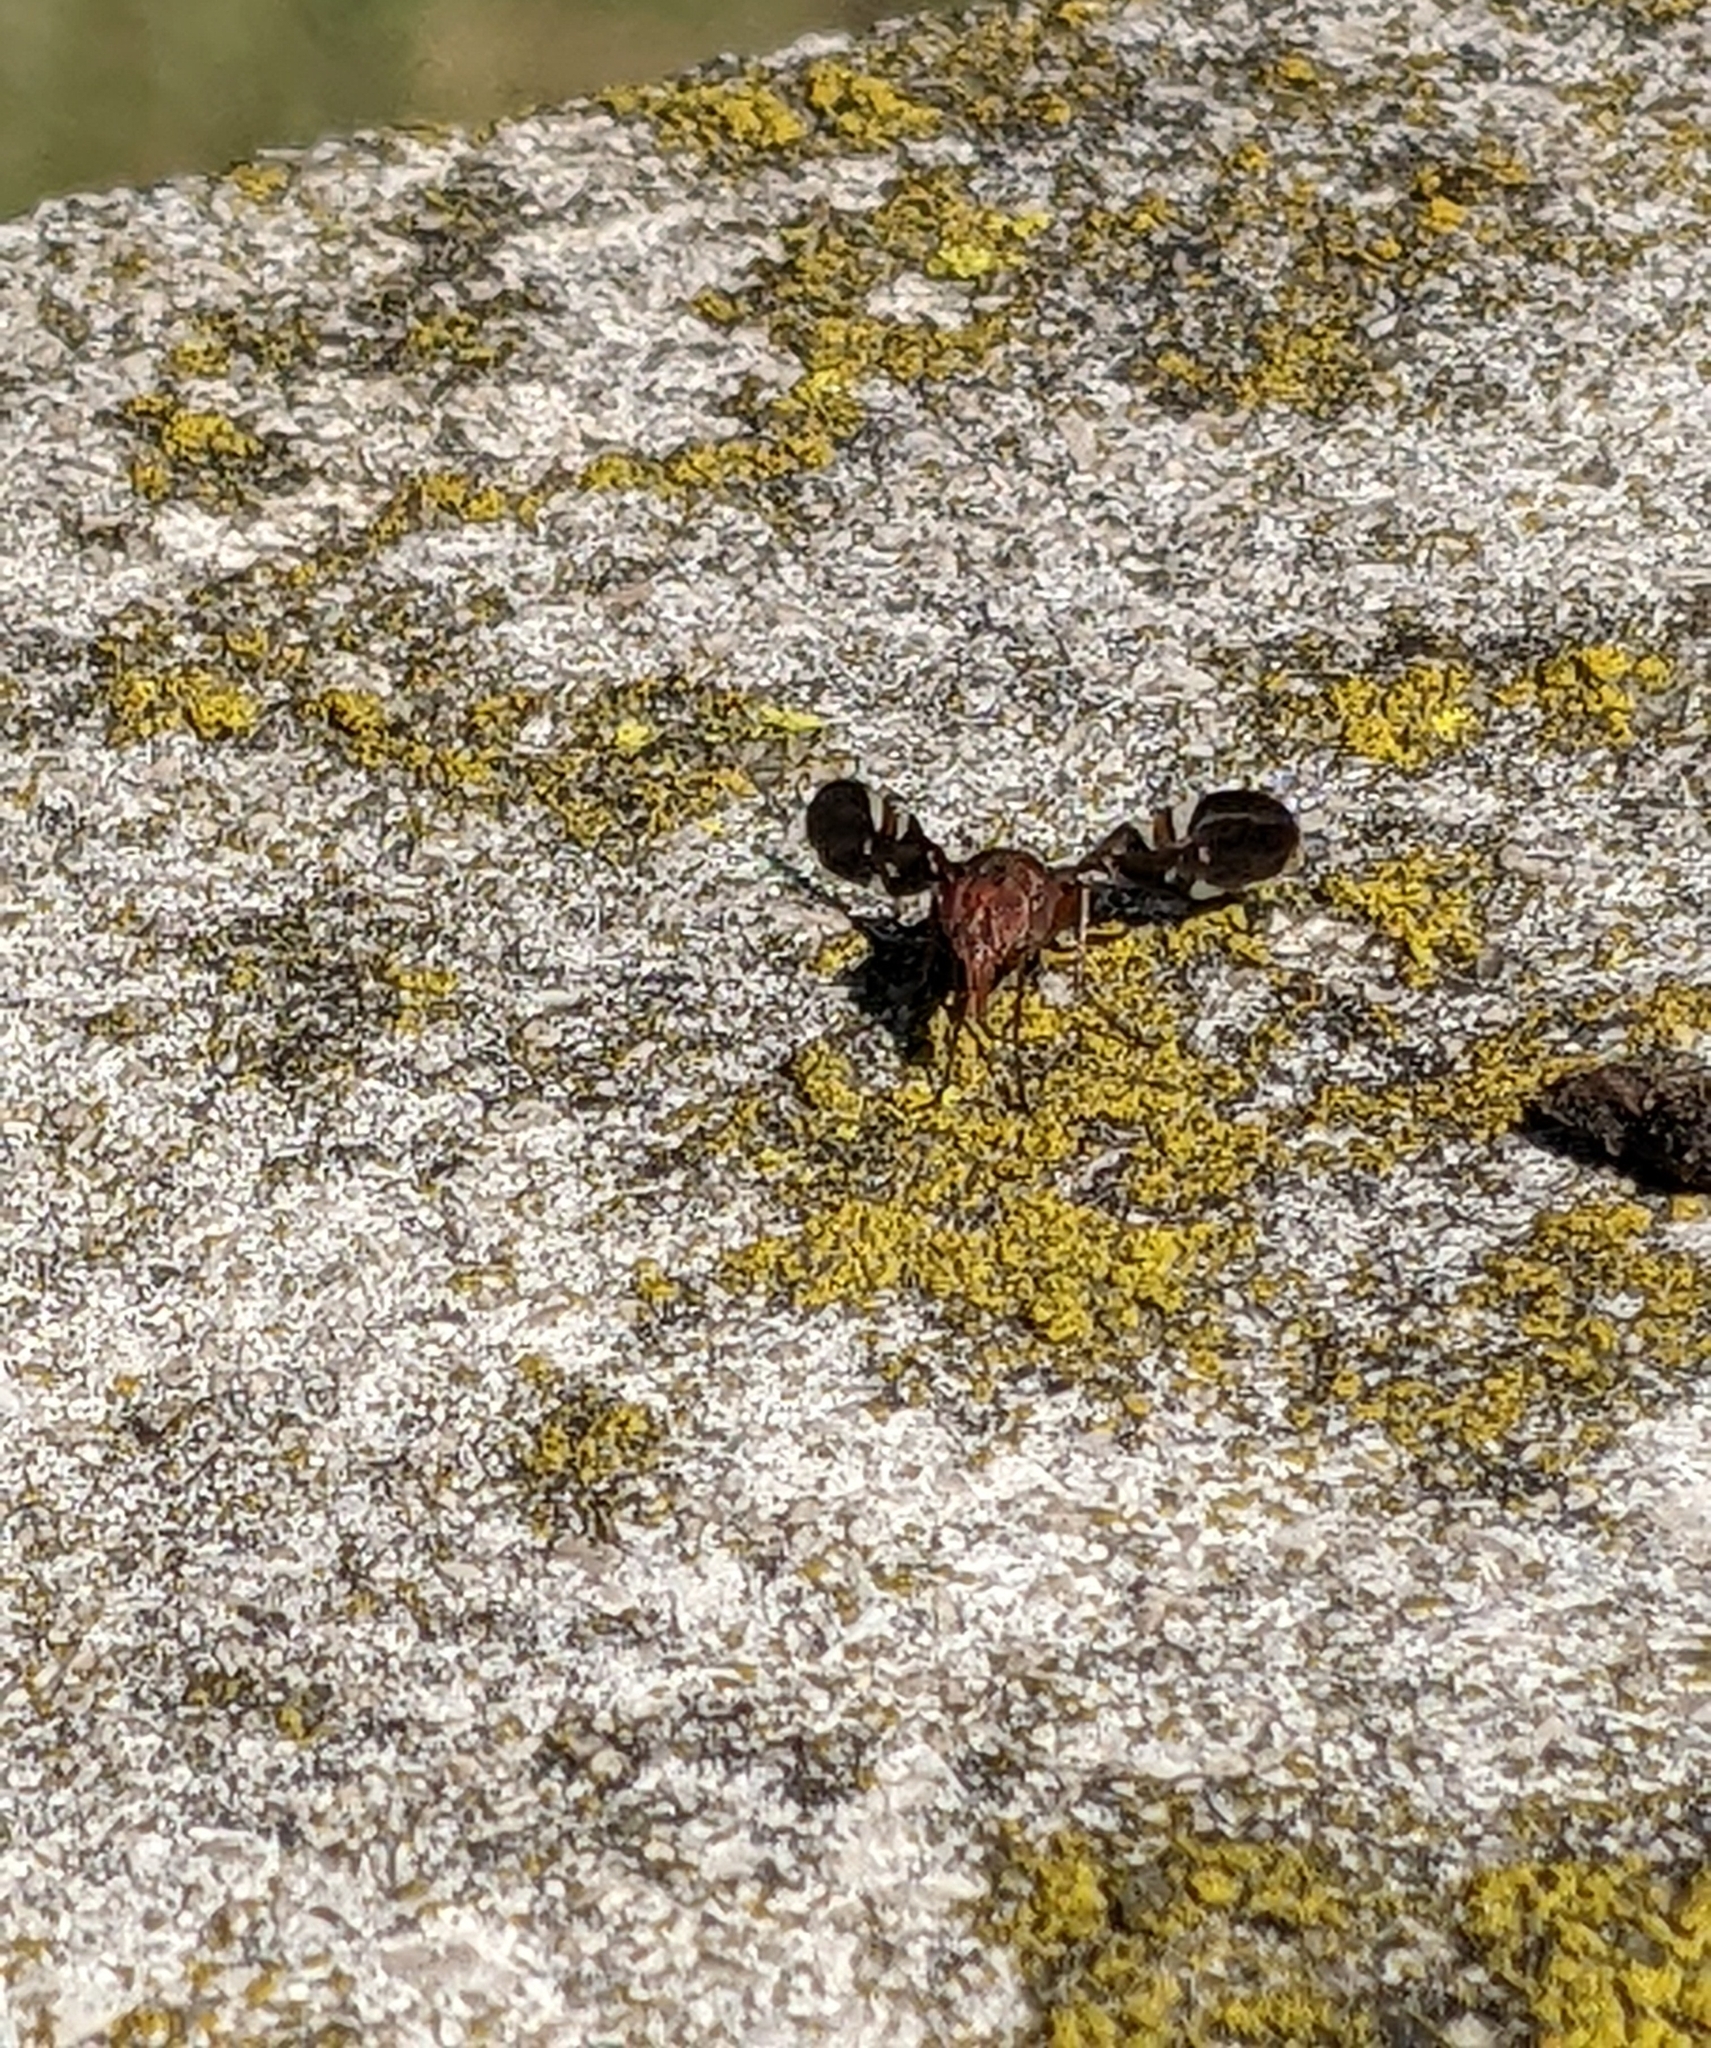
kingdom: Animalia
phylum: Arthropoda
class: Insecta
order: Diptera
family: Ulidiidae
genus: Delphinia
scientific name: Delphinia picta
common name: Common picture-winged fly
